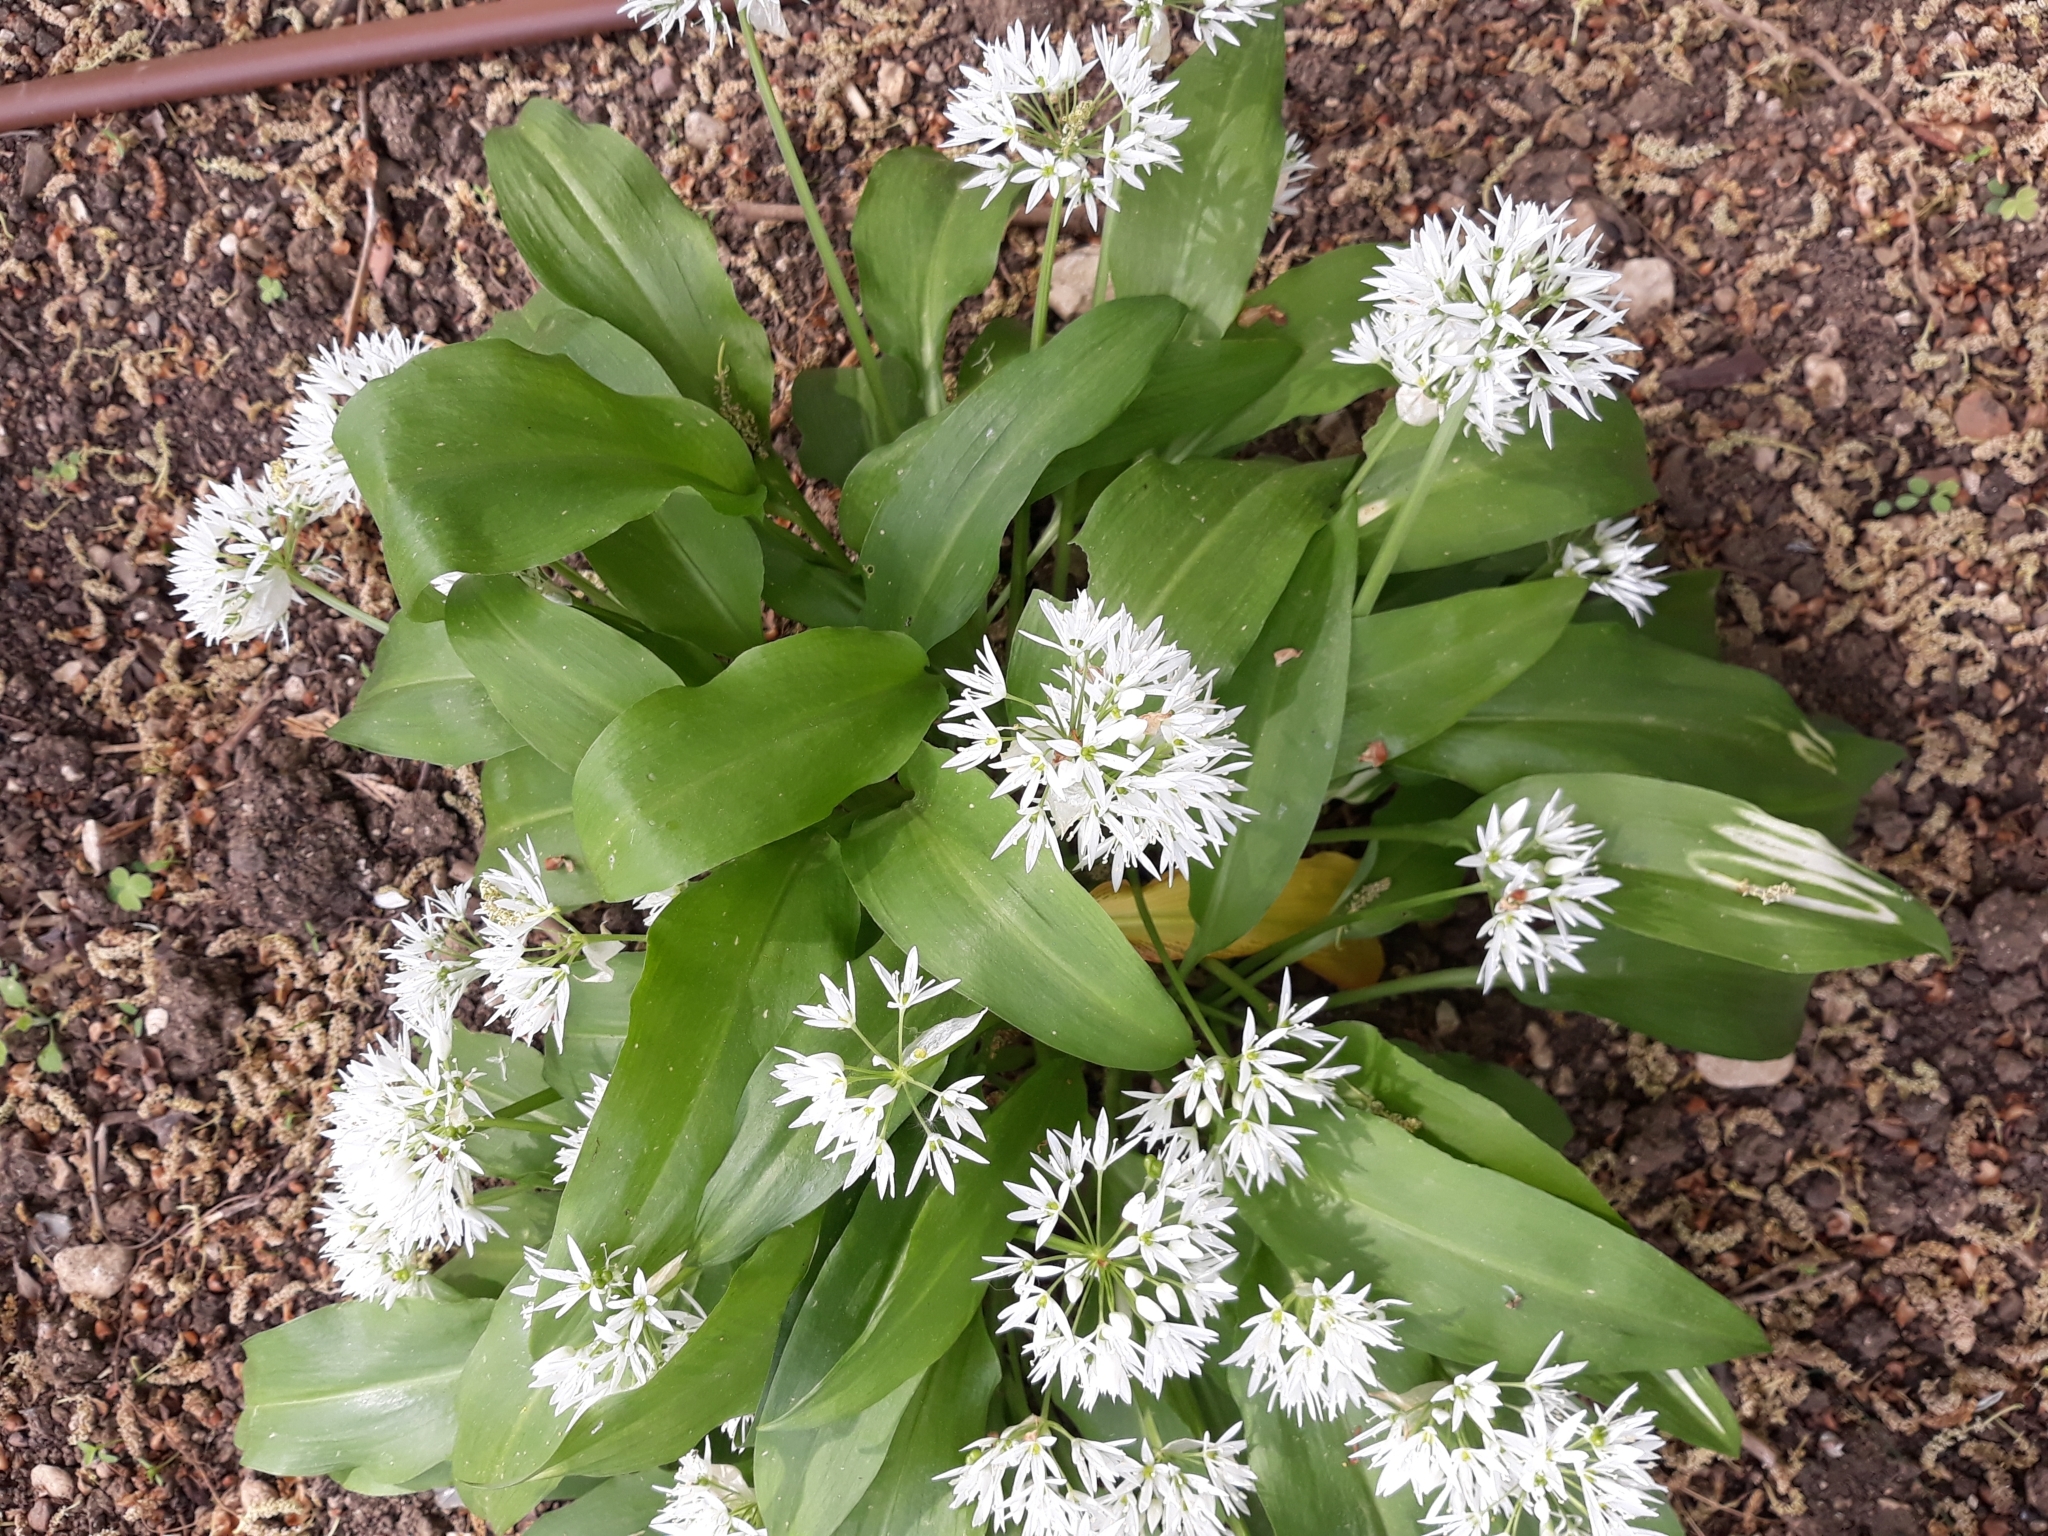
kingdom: Plantae
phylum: Tracheophyta
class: Liliopsida
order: Asparagales
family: Amaryllidaceae
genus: Allium
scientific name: Allium ursinum
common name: Ramsons
